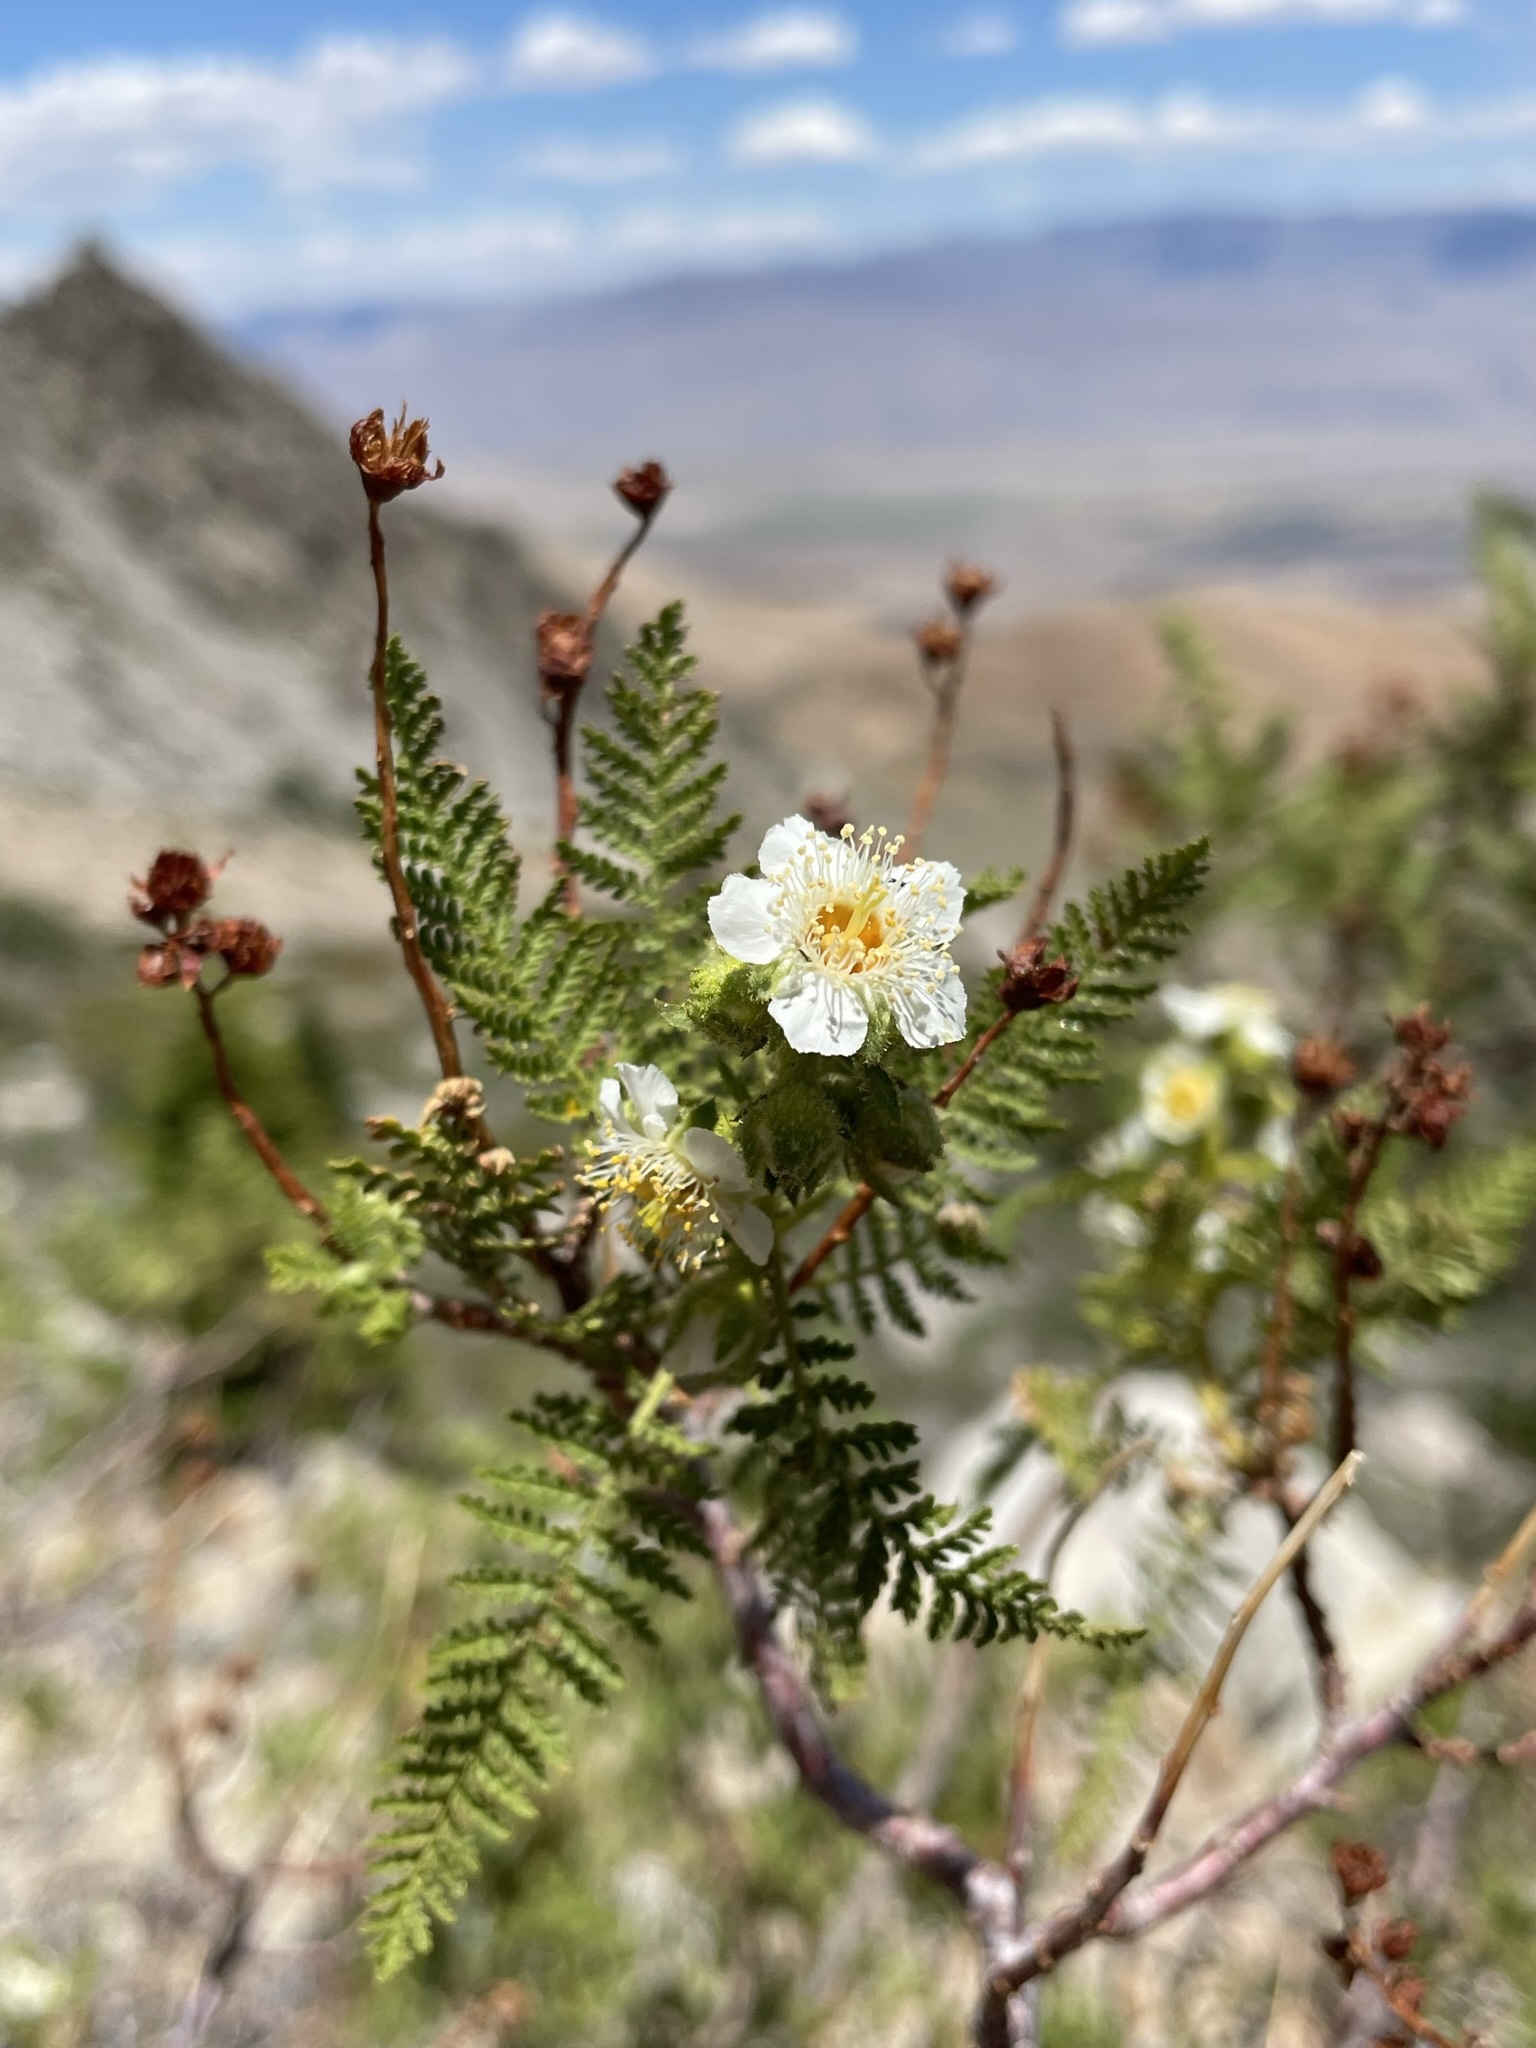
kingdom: Plantae
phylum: Tracheophyta
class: Magnoliopsida
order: Rosales
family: Rosaceae
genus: Chamaebatiaria
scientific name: Chamaebatiaria millefolium
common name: Fernbush
